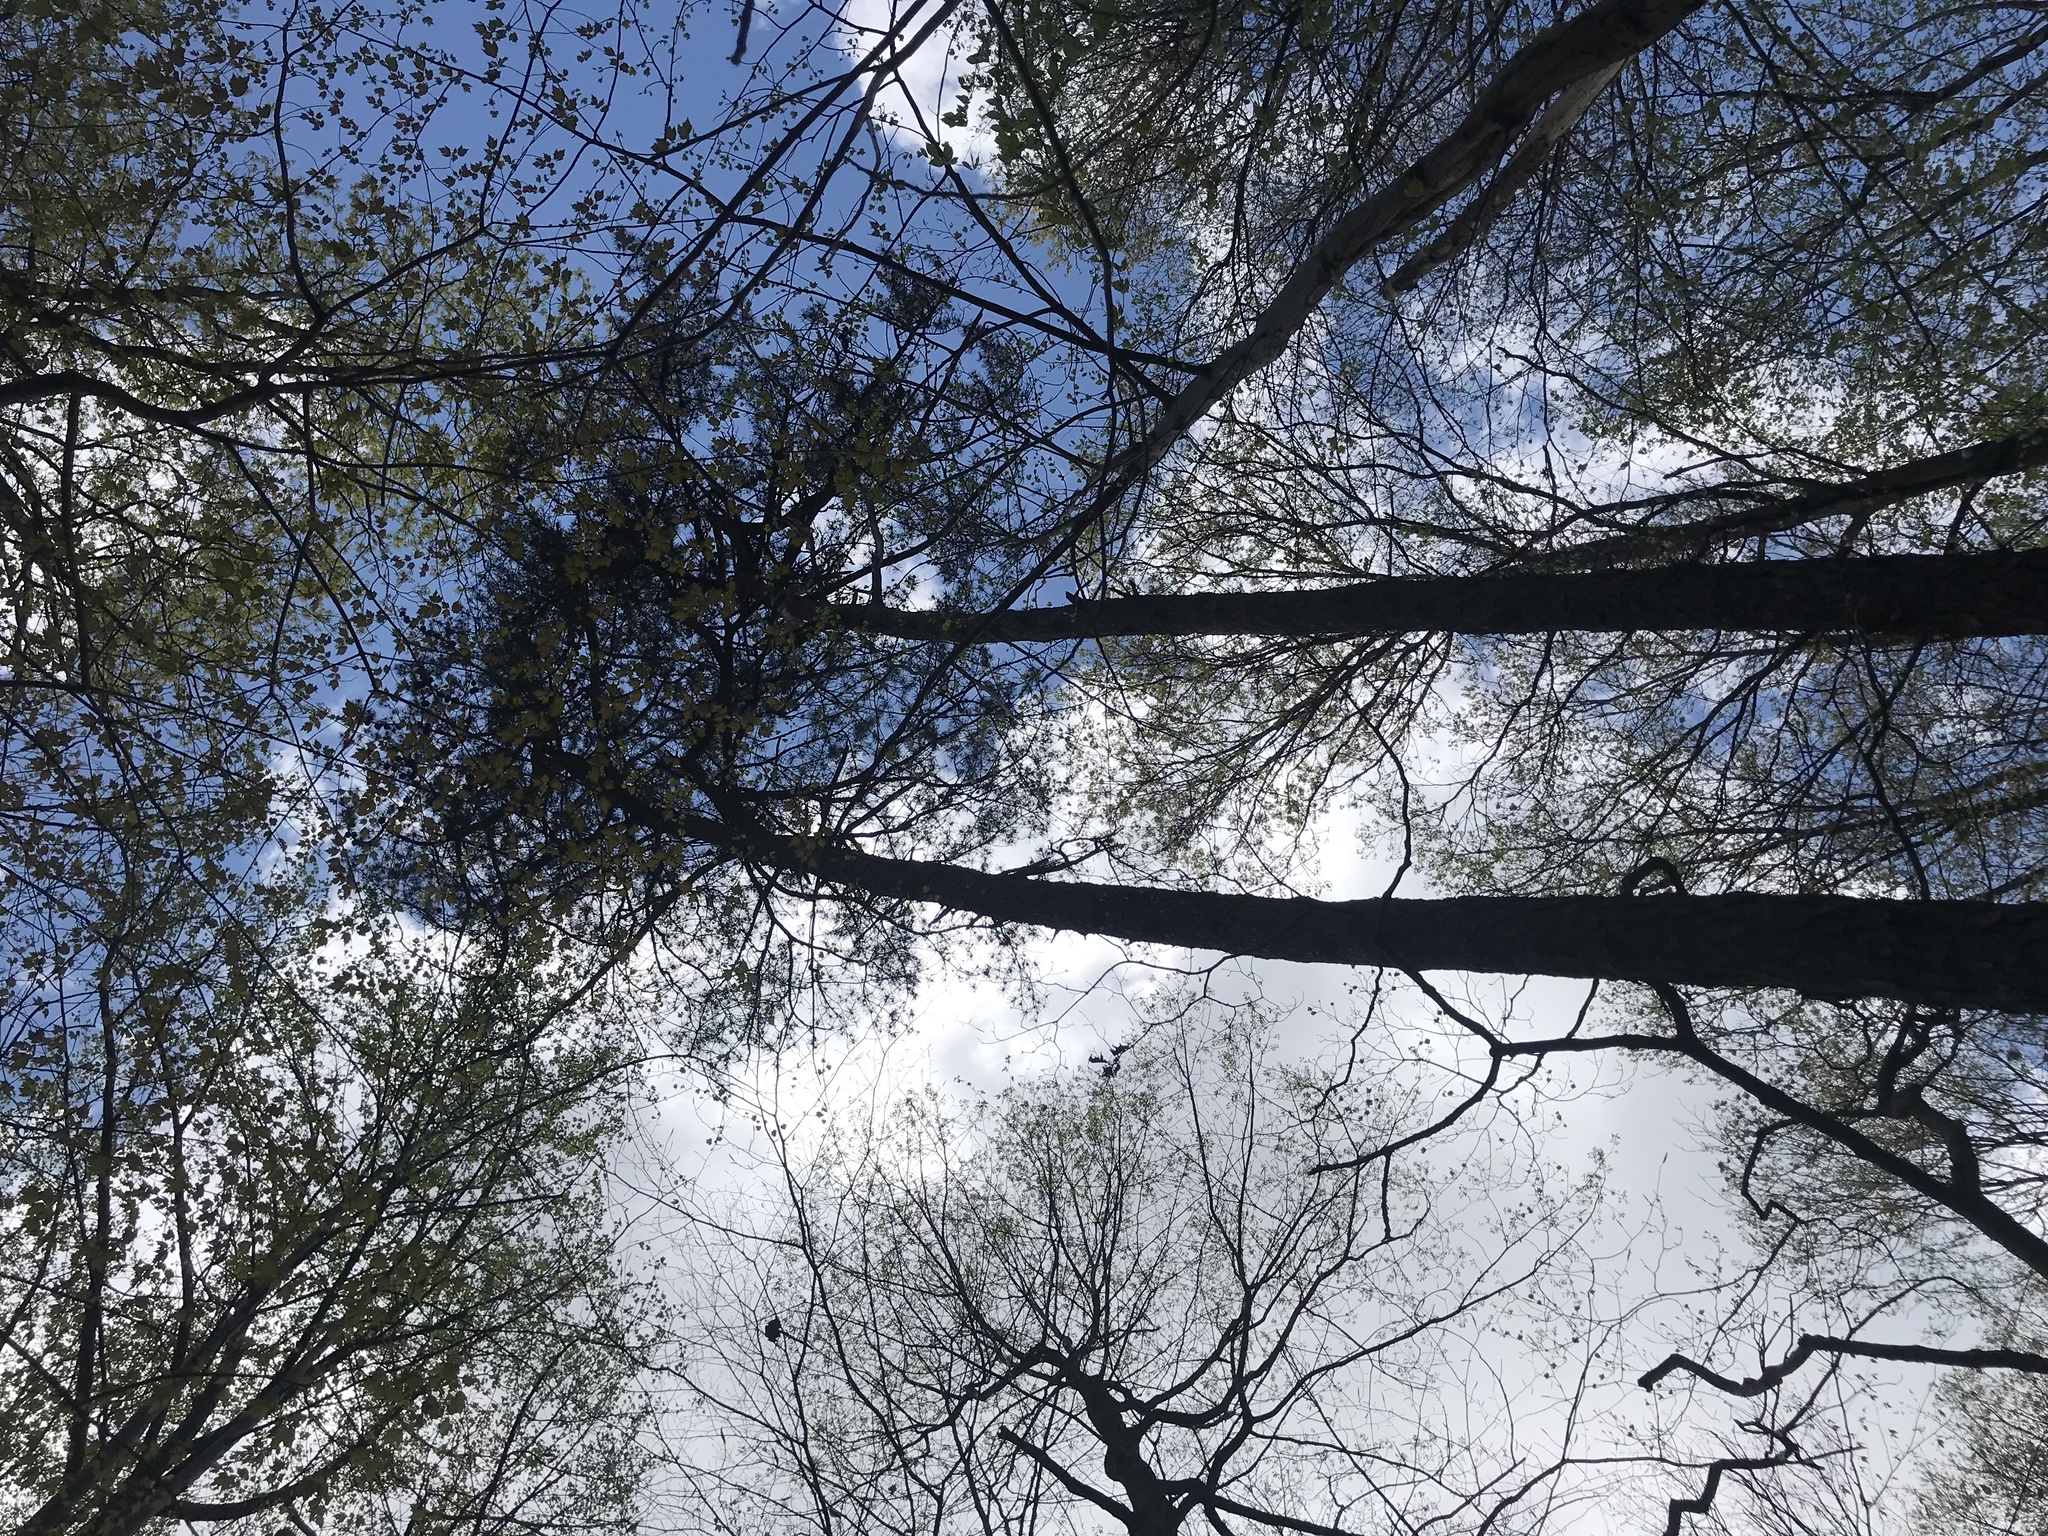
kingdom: Plantae
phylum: Tracheophyta
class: Pinopsida
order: Pinales
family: Pinaceae
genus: Pinus
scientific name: Pinus pungens
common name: Hickory pine
